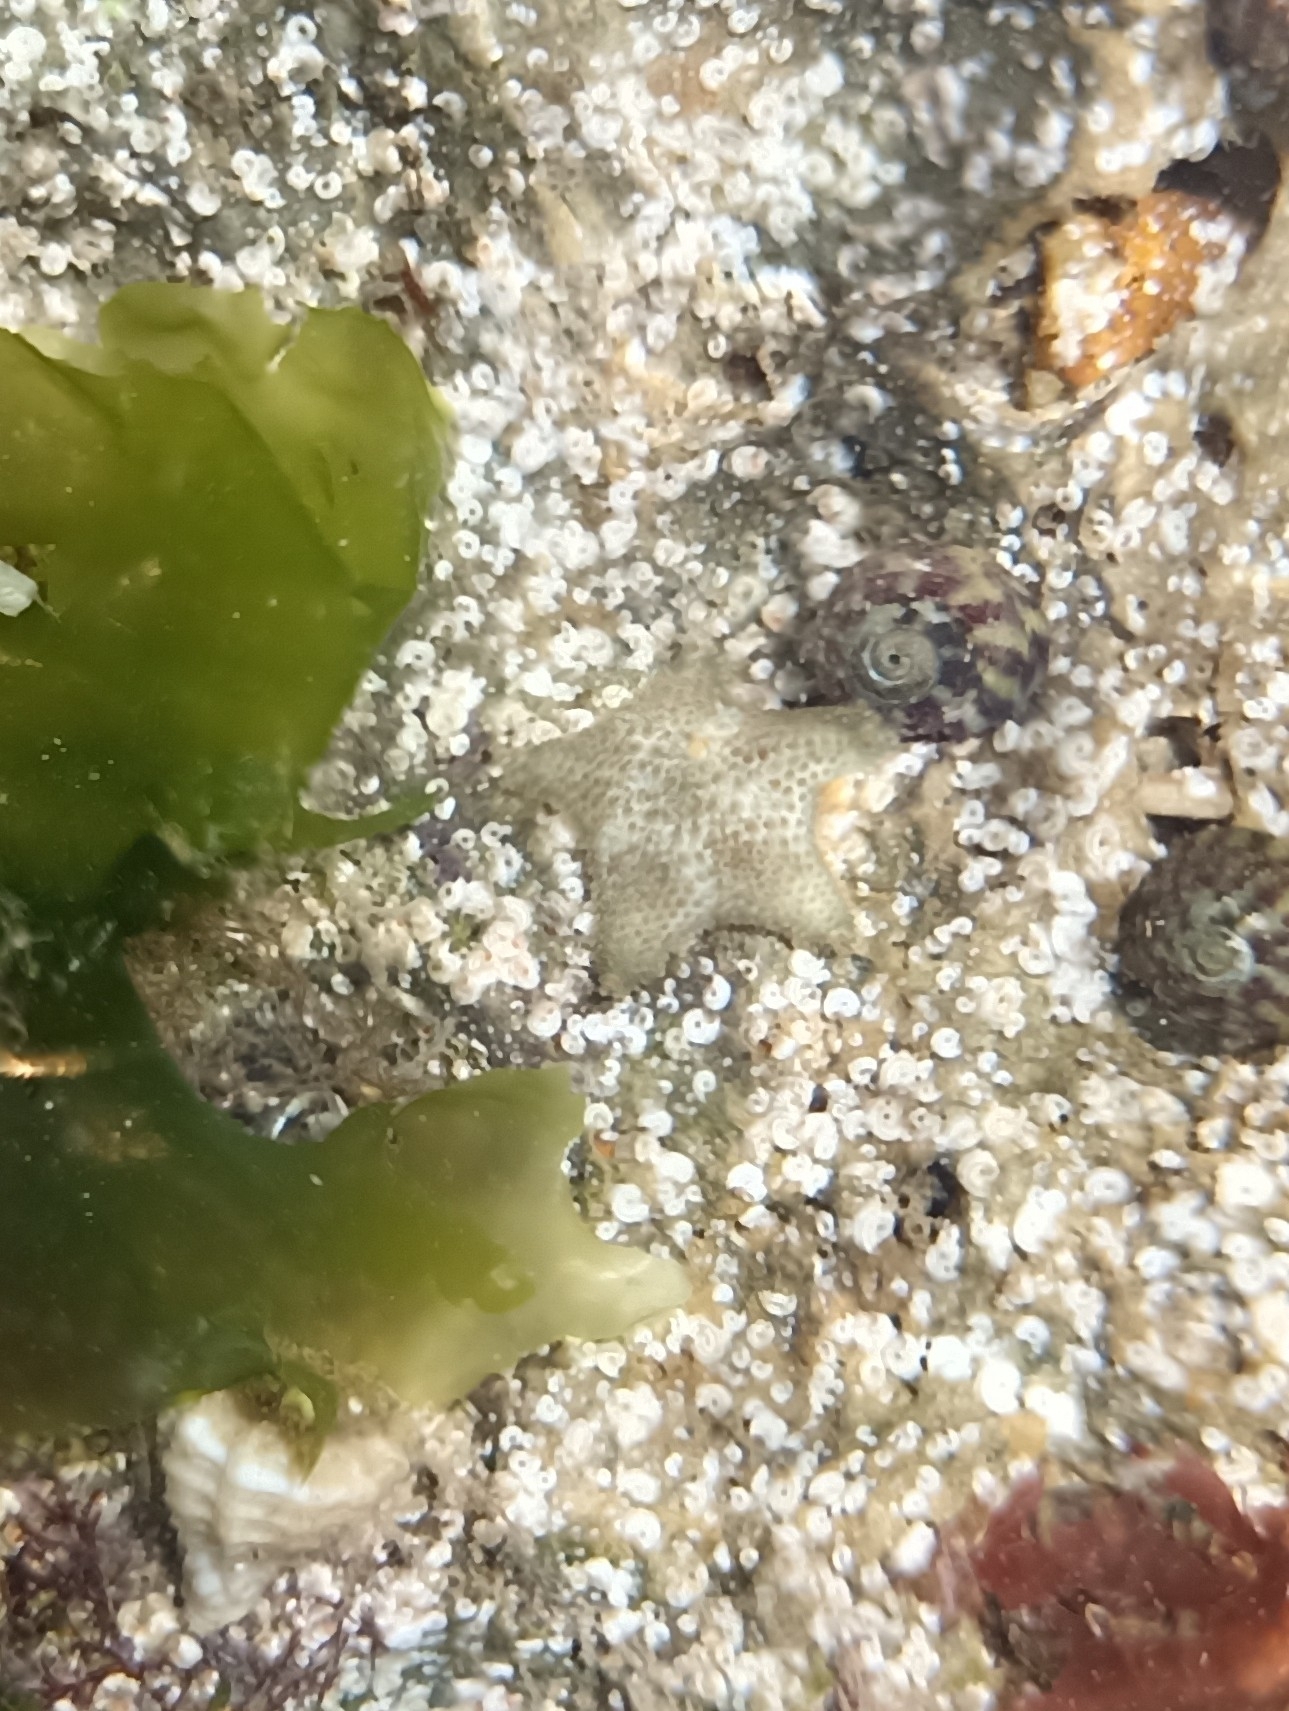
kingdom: Animalia
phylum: Echinodermata
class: Asteroidea
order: Valvatida
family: Asterinidae
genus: Asterina
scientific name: Asterina gibbosa
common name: Cushion star
